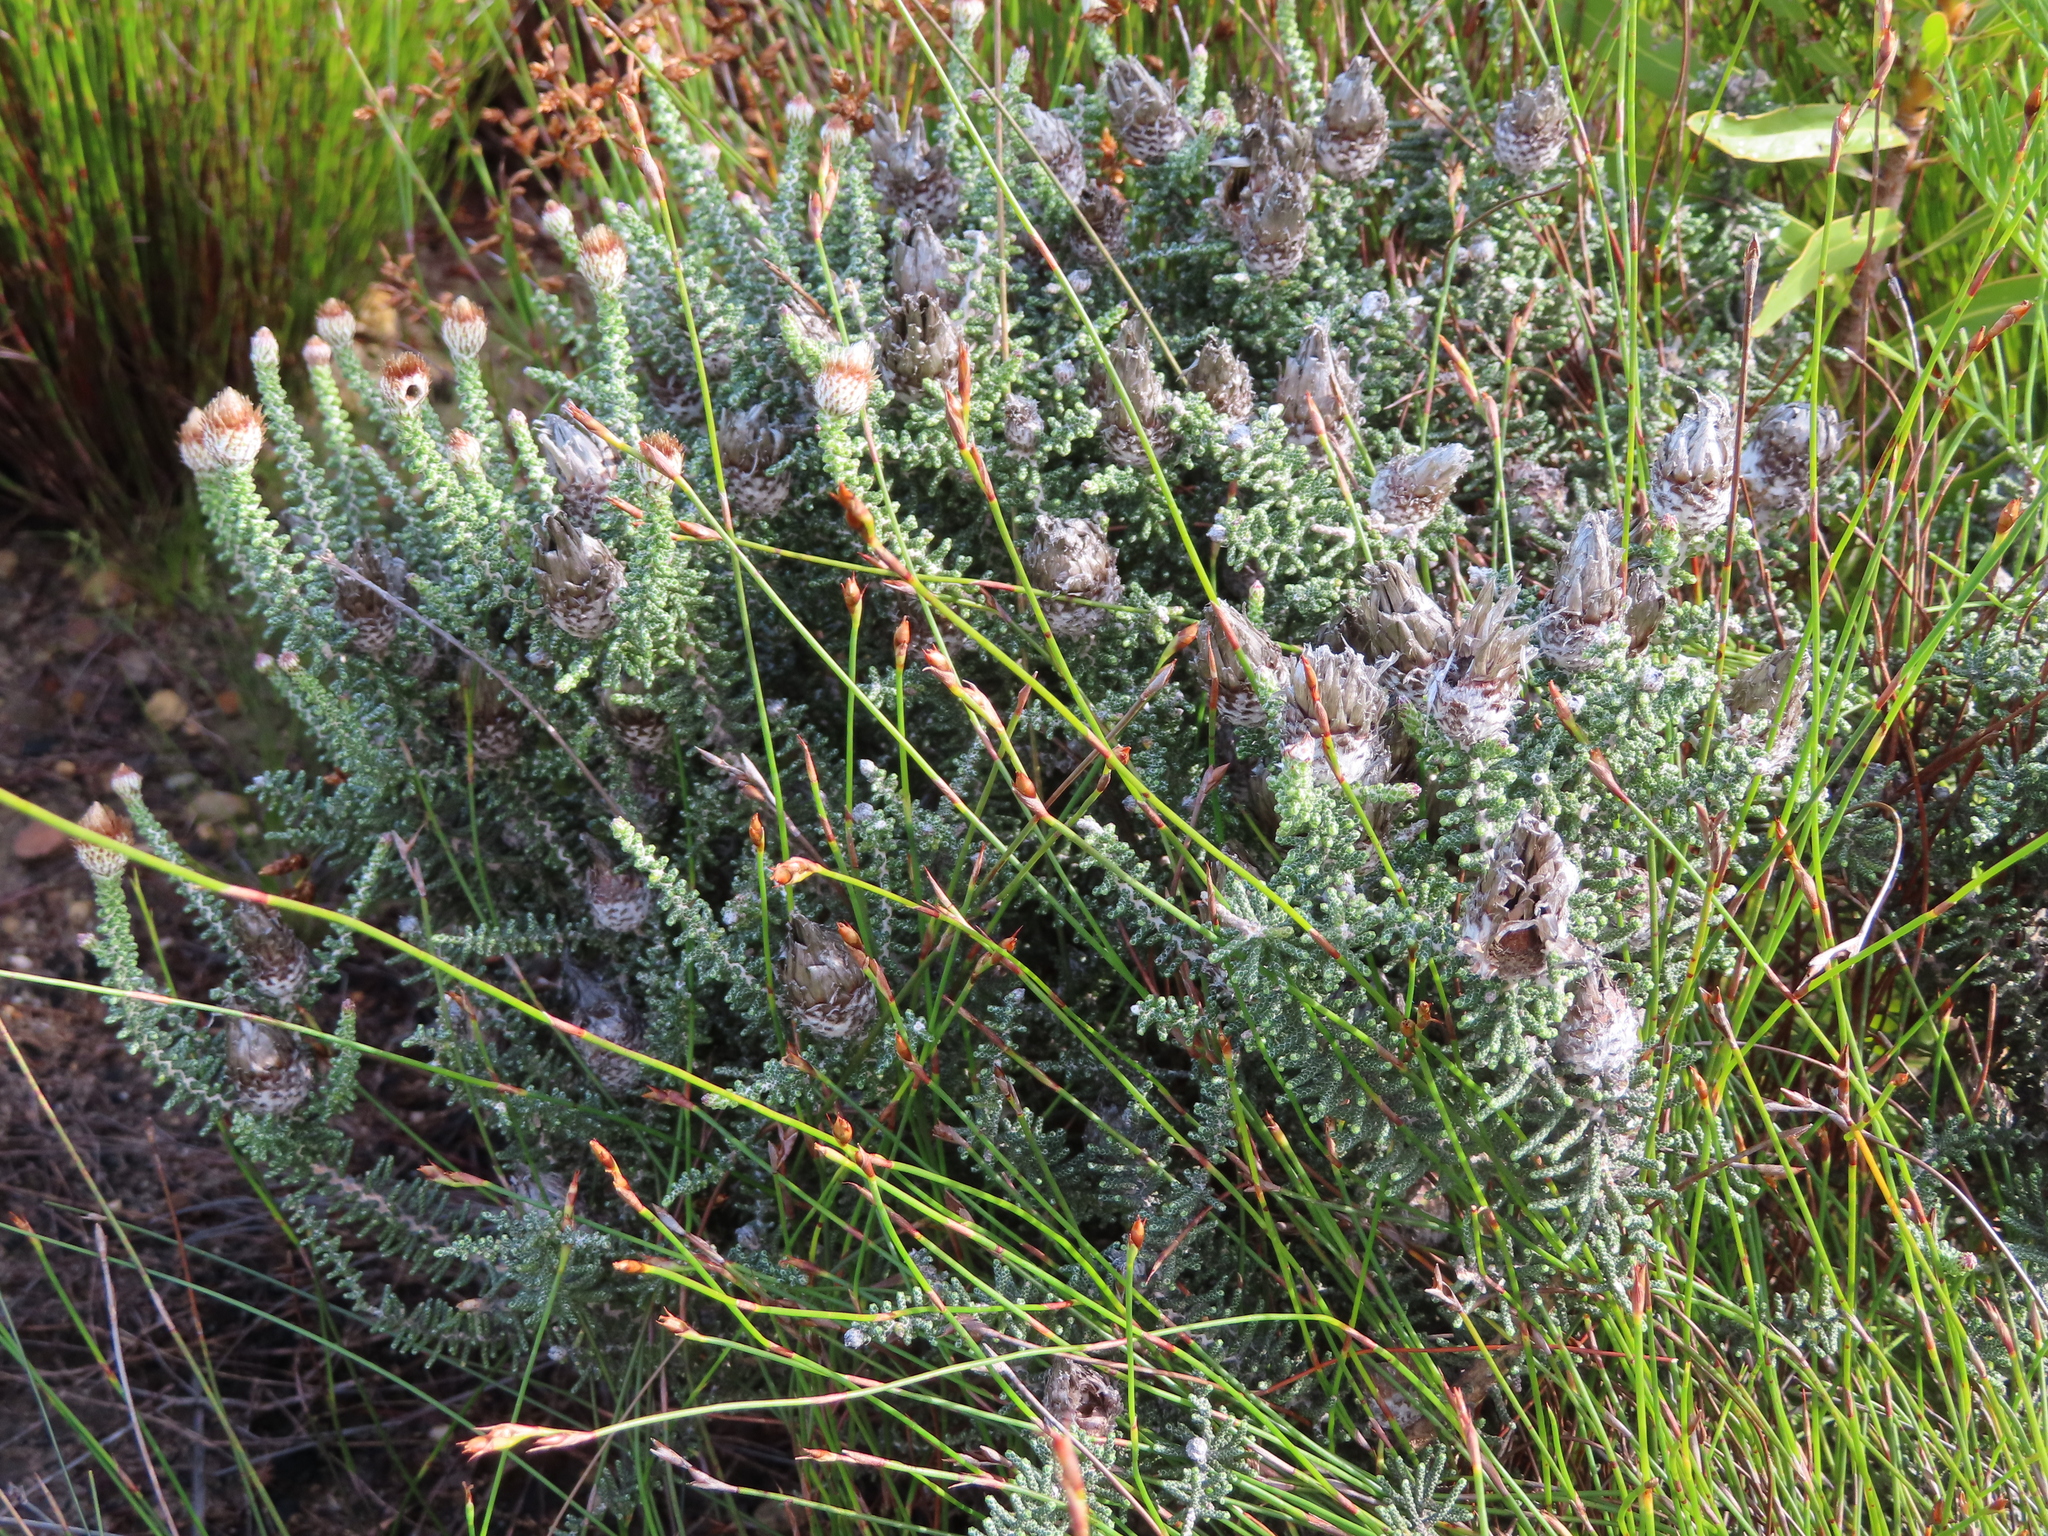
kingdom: Plantae
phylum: Tracheophyta
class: Magnoliopsida
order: Asterales
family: Asteraceae
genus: Phaenocoma
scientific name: Phaenocoma prolifera
